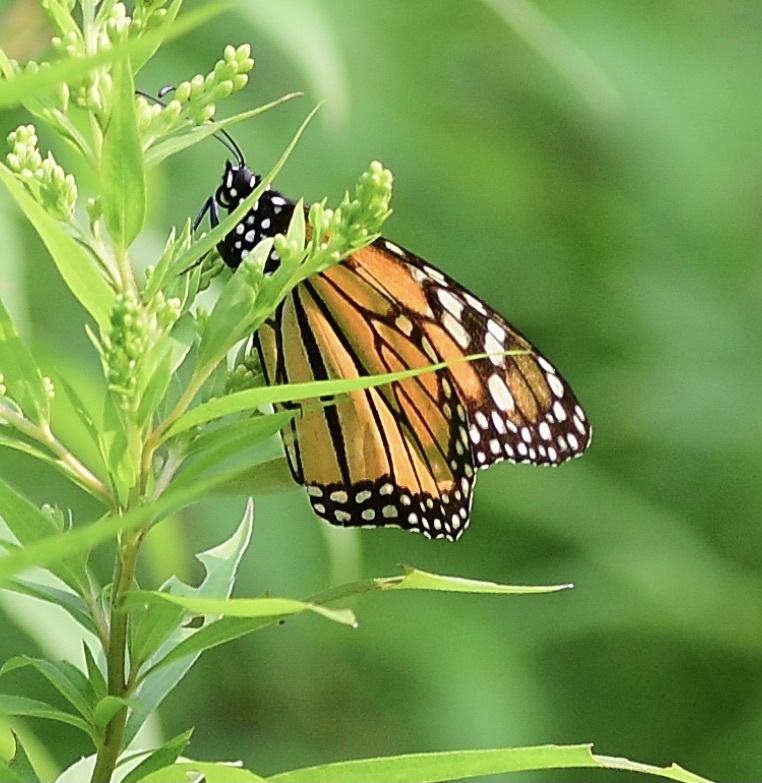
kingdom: Animalia
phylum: Arthropoda
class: Insecta
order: Lepidoptera
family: Nymphalidae
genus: Danaus
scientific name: Danaus plexippus
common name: Monarch
